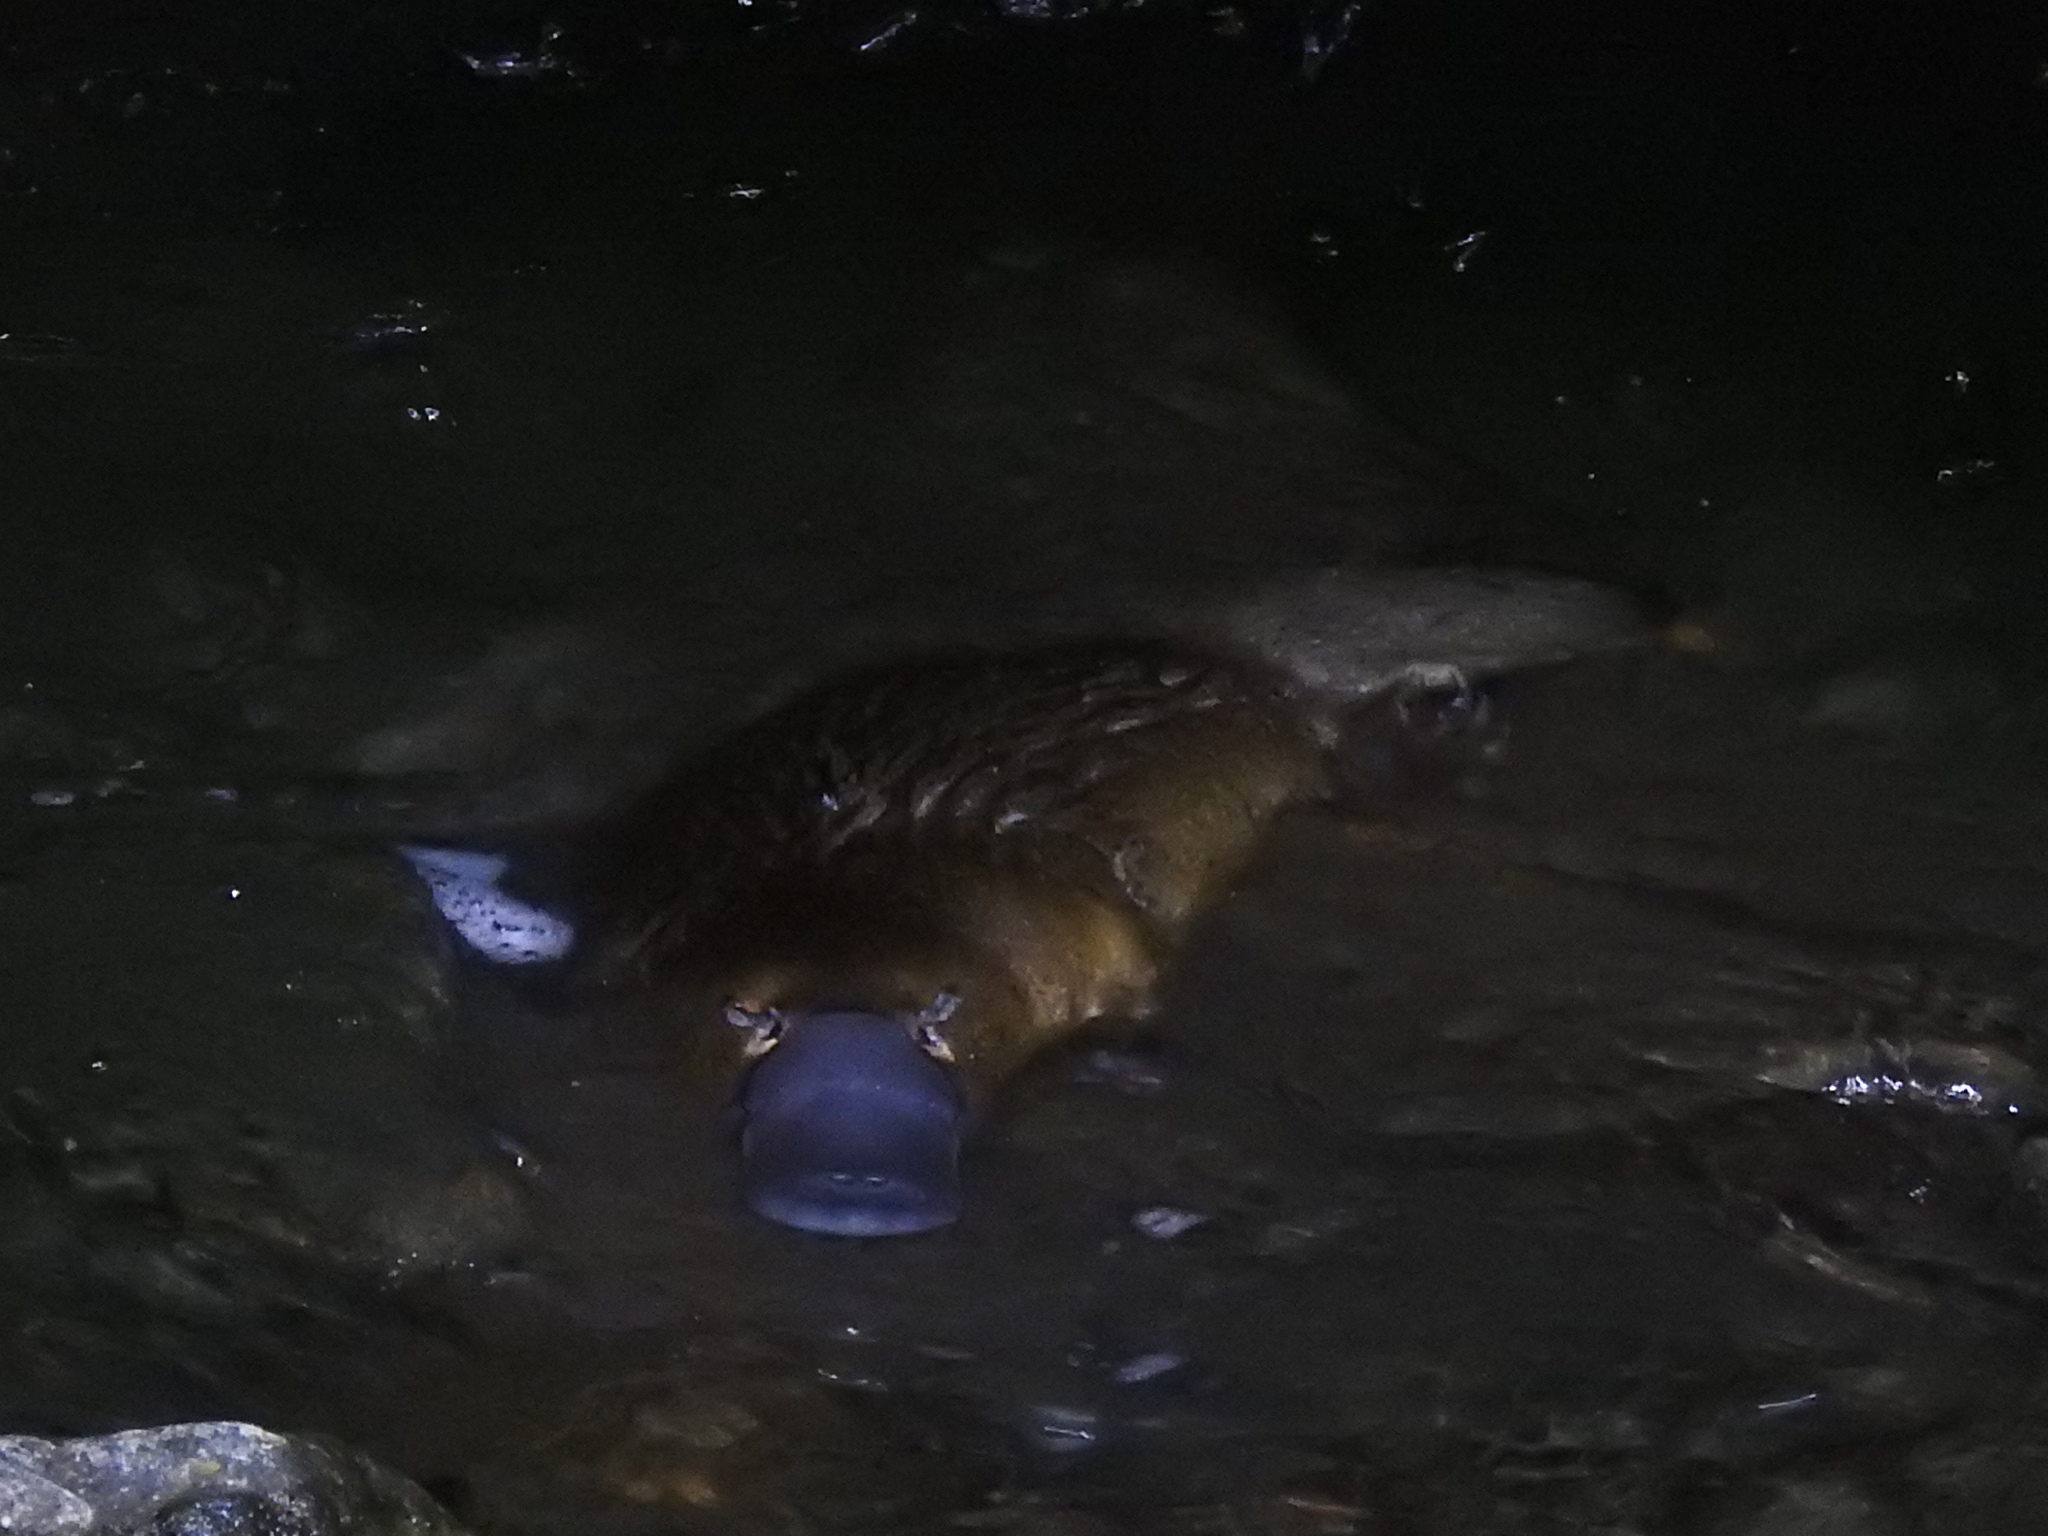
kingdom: Animalia
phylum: Chordata
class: Mammalia
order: Monotremata
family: Ornithorhynchidae
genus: Ornithorhynchus
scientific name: Ornithorhynchus anatinus
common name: Platypus
